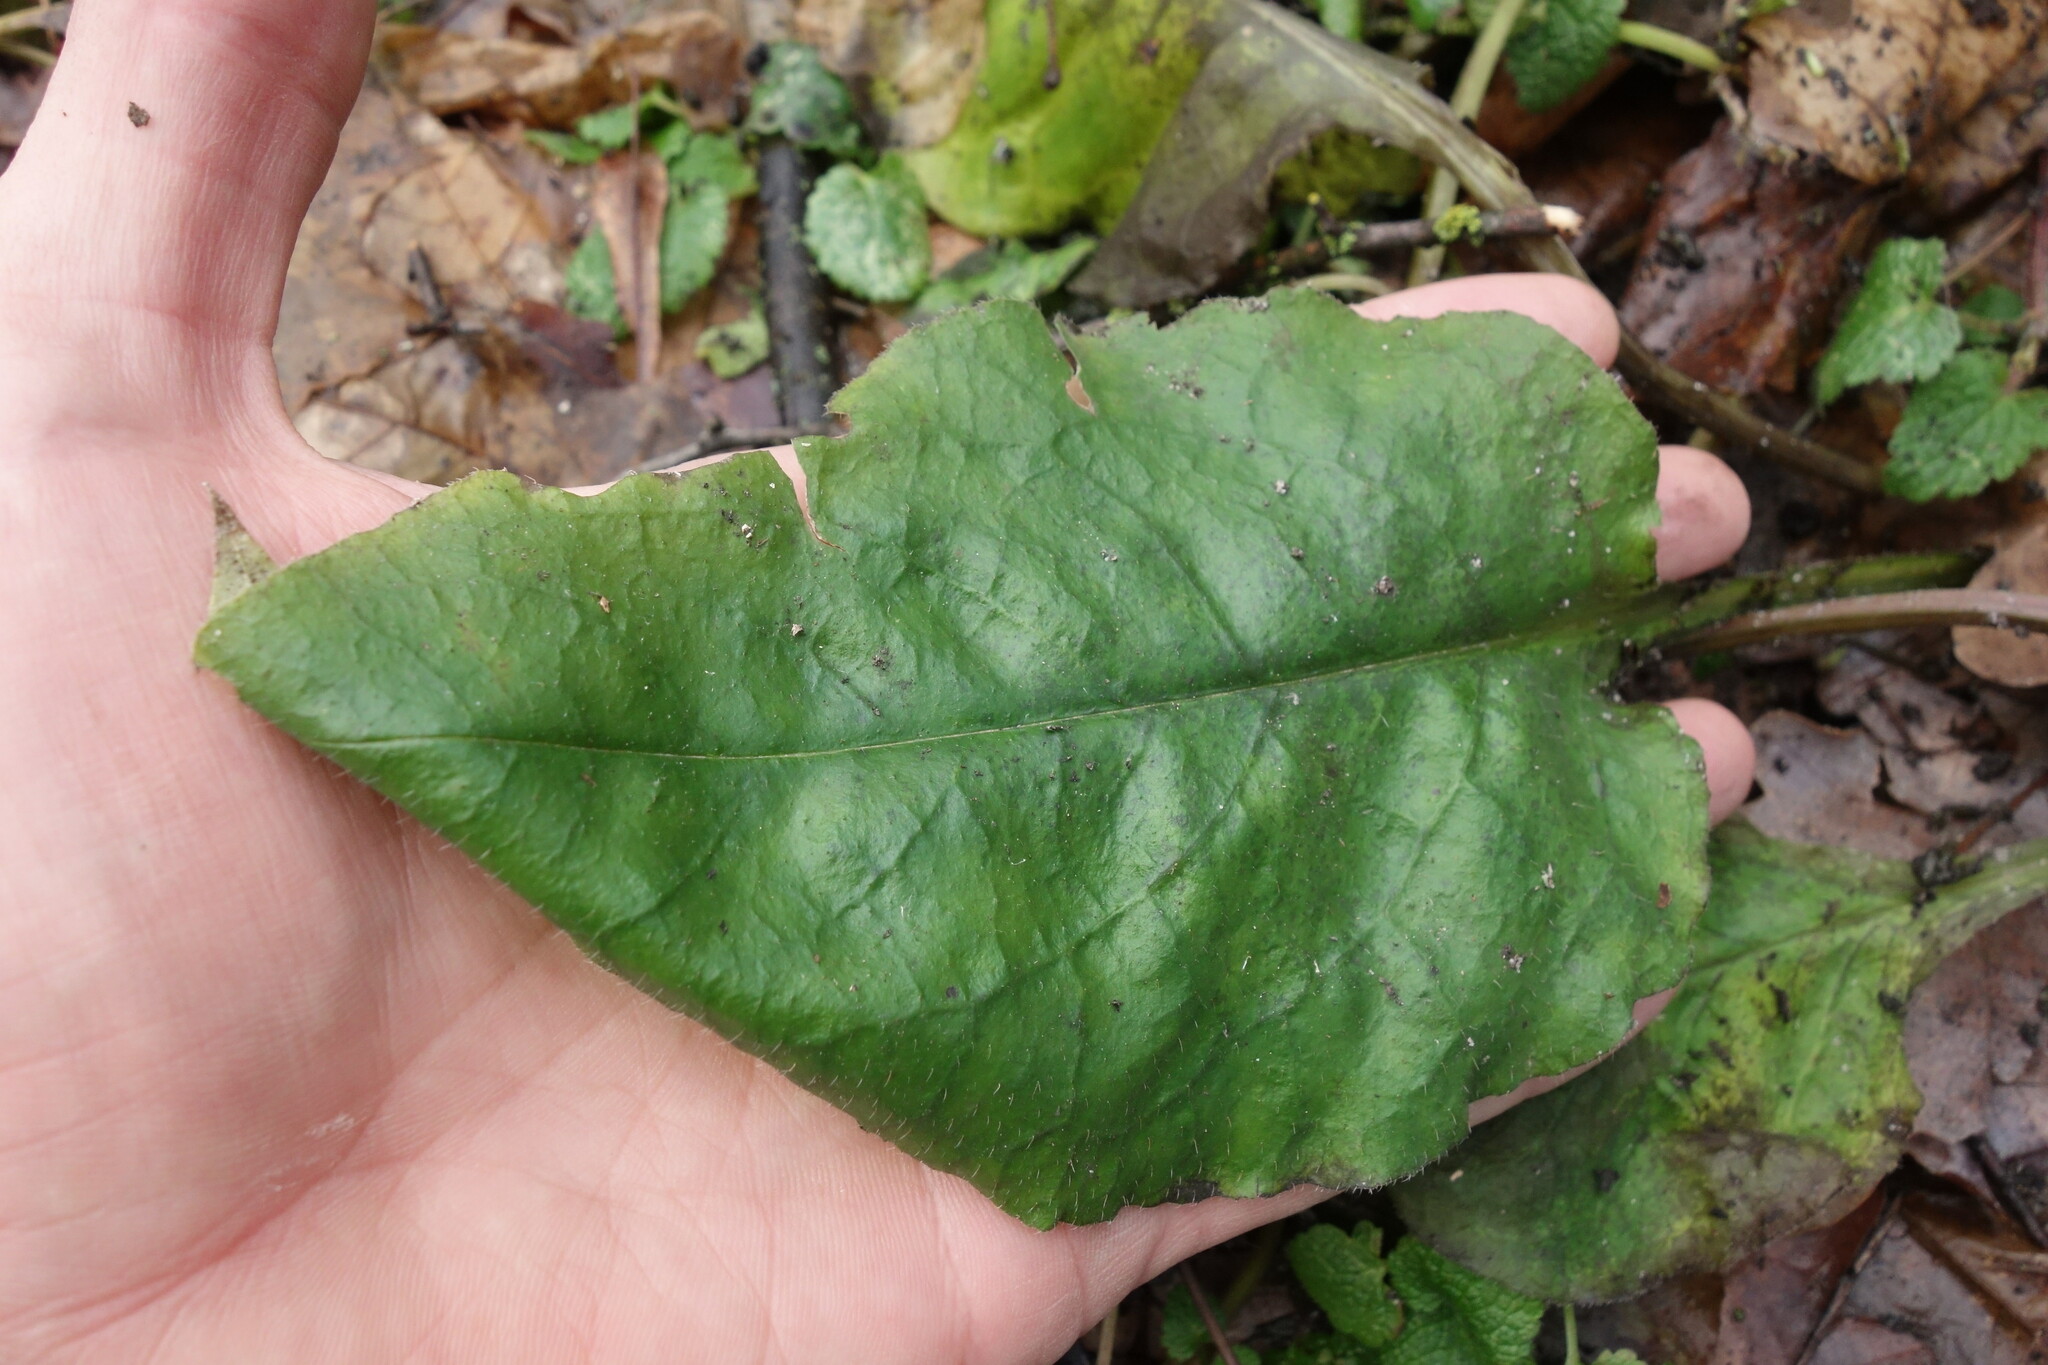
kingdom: Plantae
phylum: Tracheophyta
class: Magnoliopsida
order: Boraginales
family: Boraginaceae
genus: Pulmonaria
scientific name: Pulmonaria obscura
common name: Suffolk lungwort
